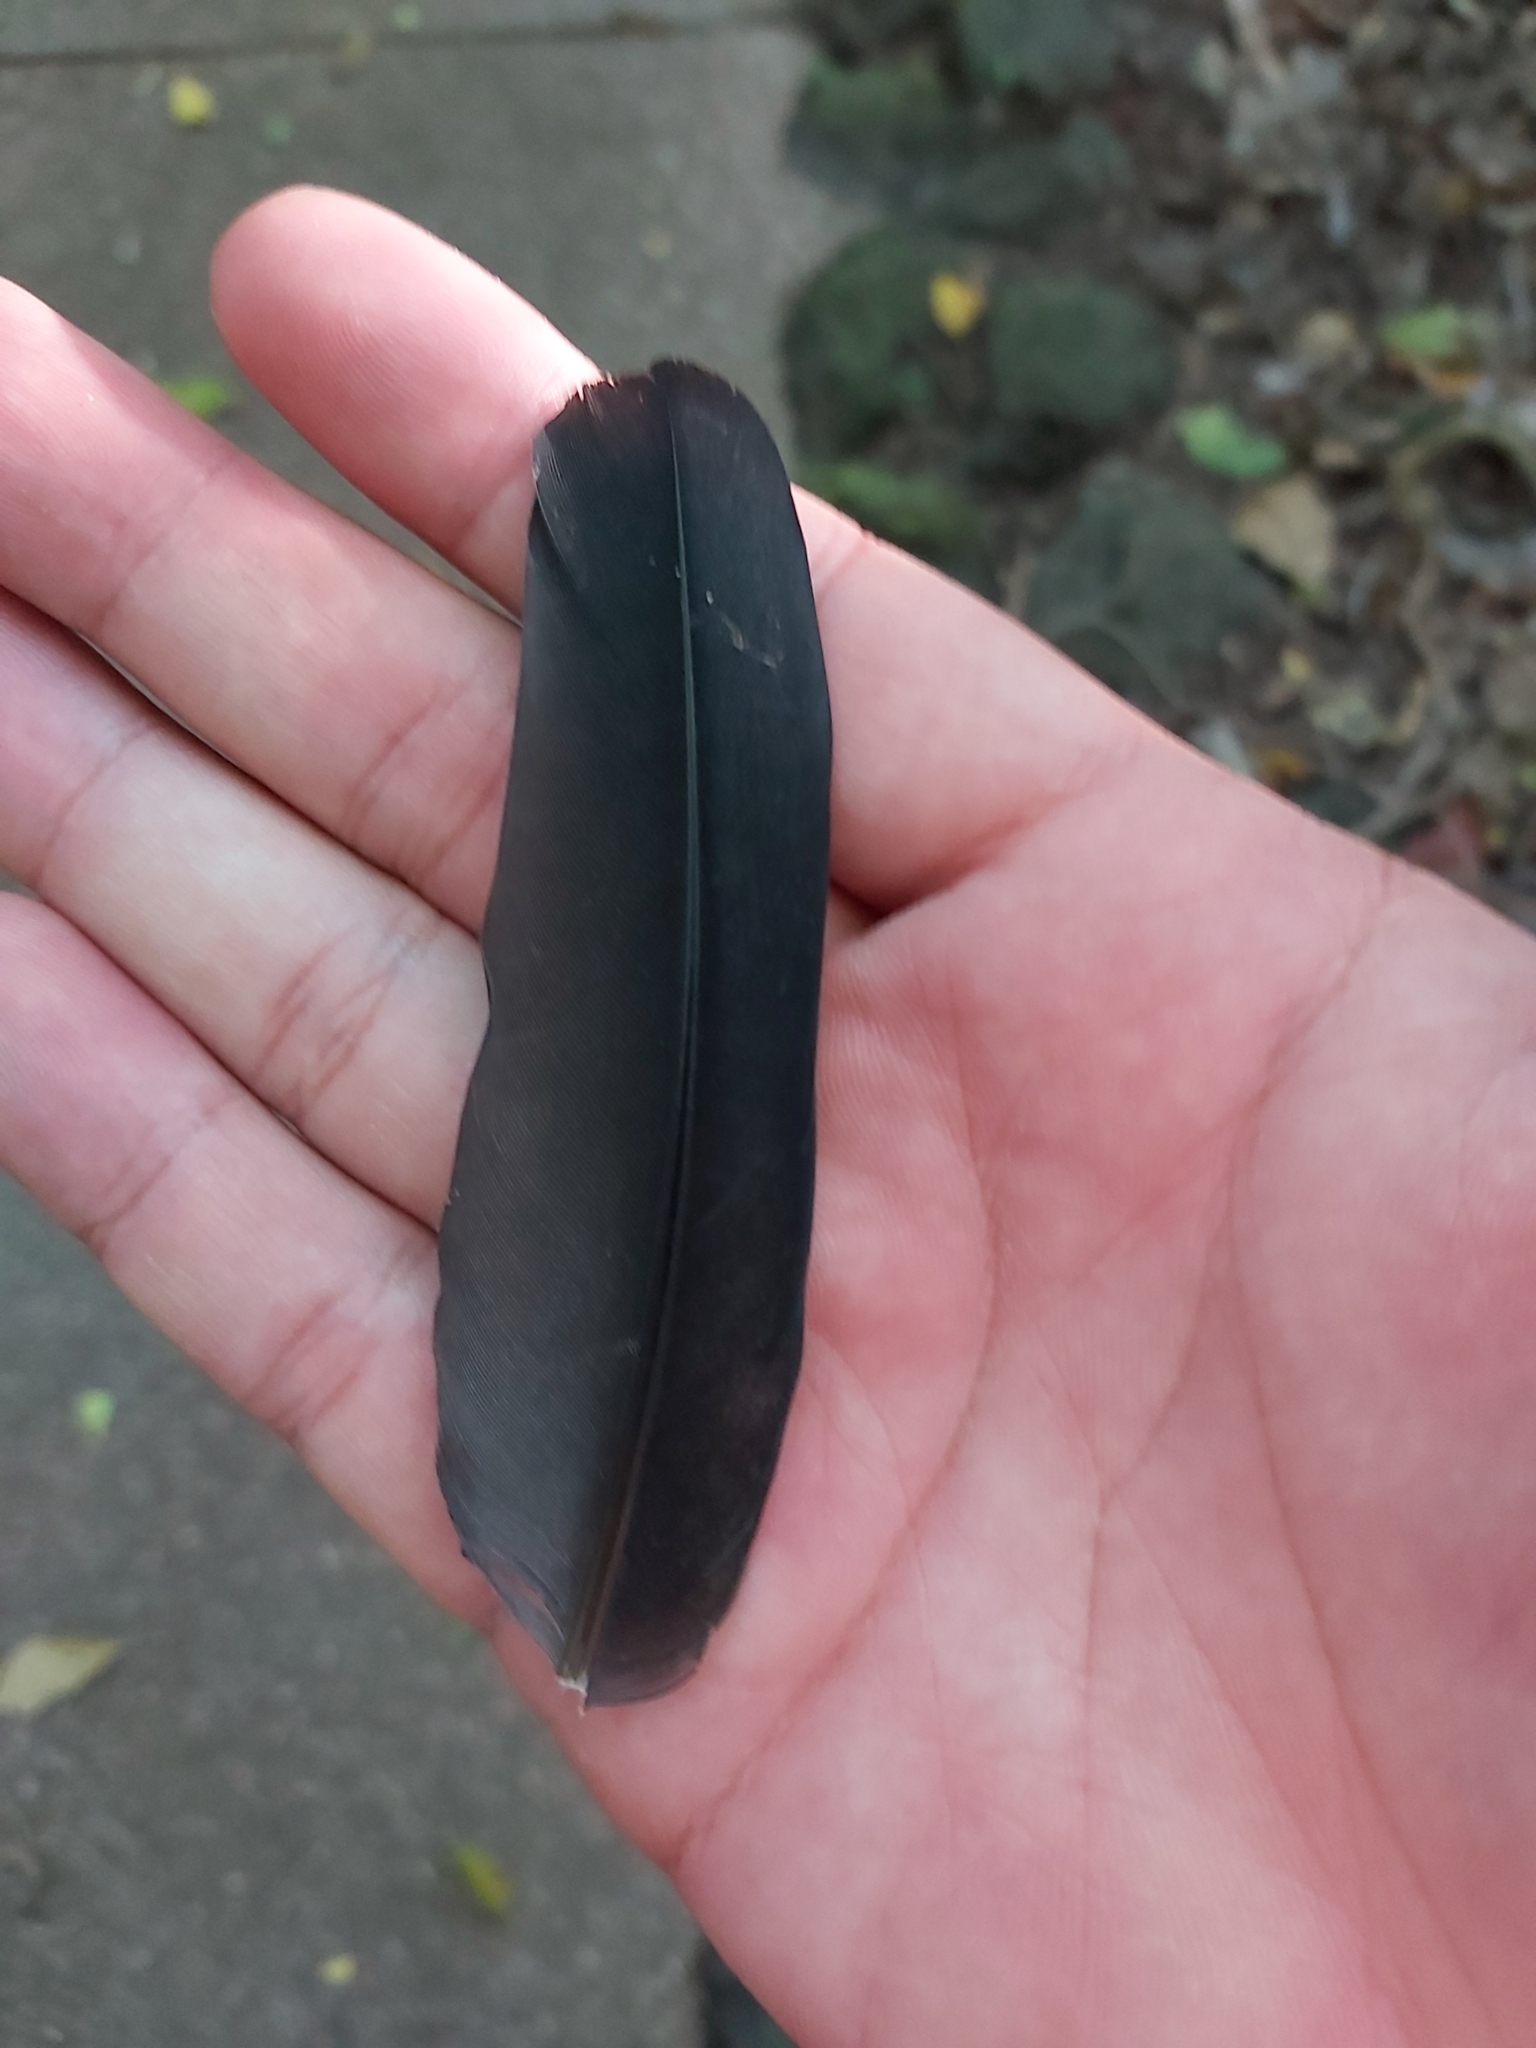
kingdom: Animalia
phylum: Chordata
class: Aves
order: Columbiformes
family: Columbidae
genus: Ducula
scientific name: Ducula spilorrhoa
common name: Torresian imperial pigeon
